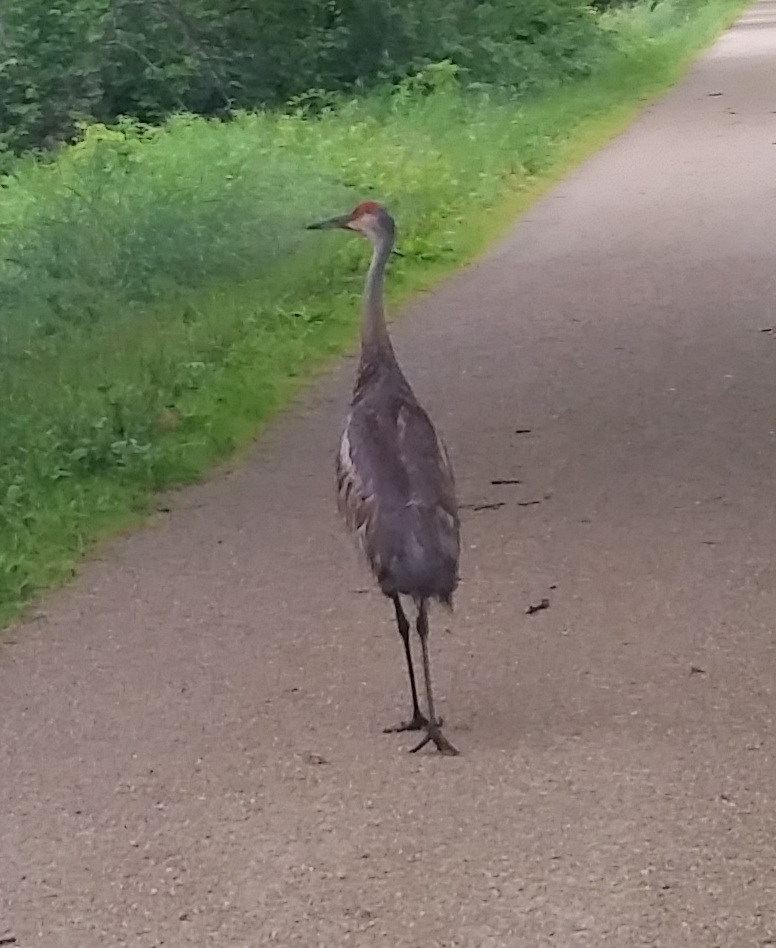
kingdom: Animalia
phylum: Chordata
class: Aves
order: Gruiformes
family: Gruidae
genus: Grus
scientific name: Grus canadensis
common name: Sandhill crane
